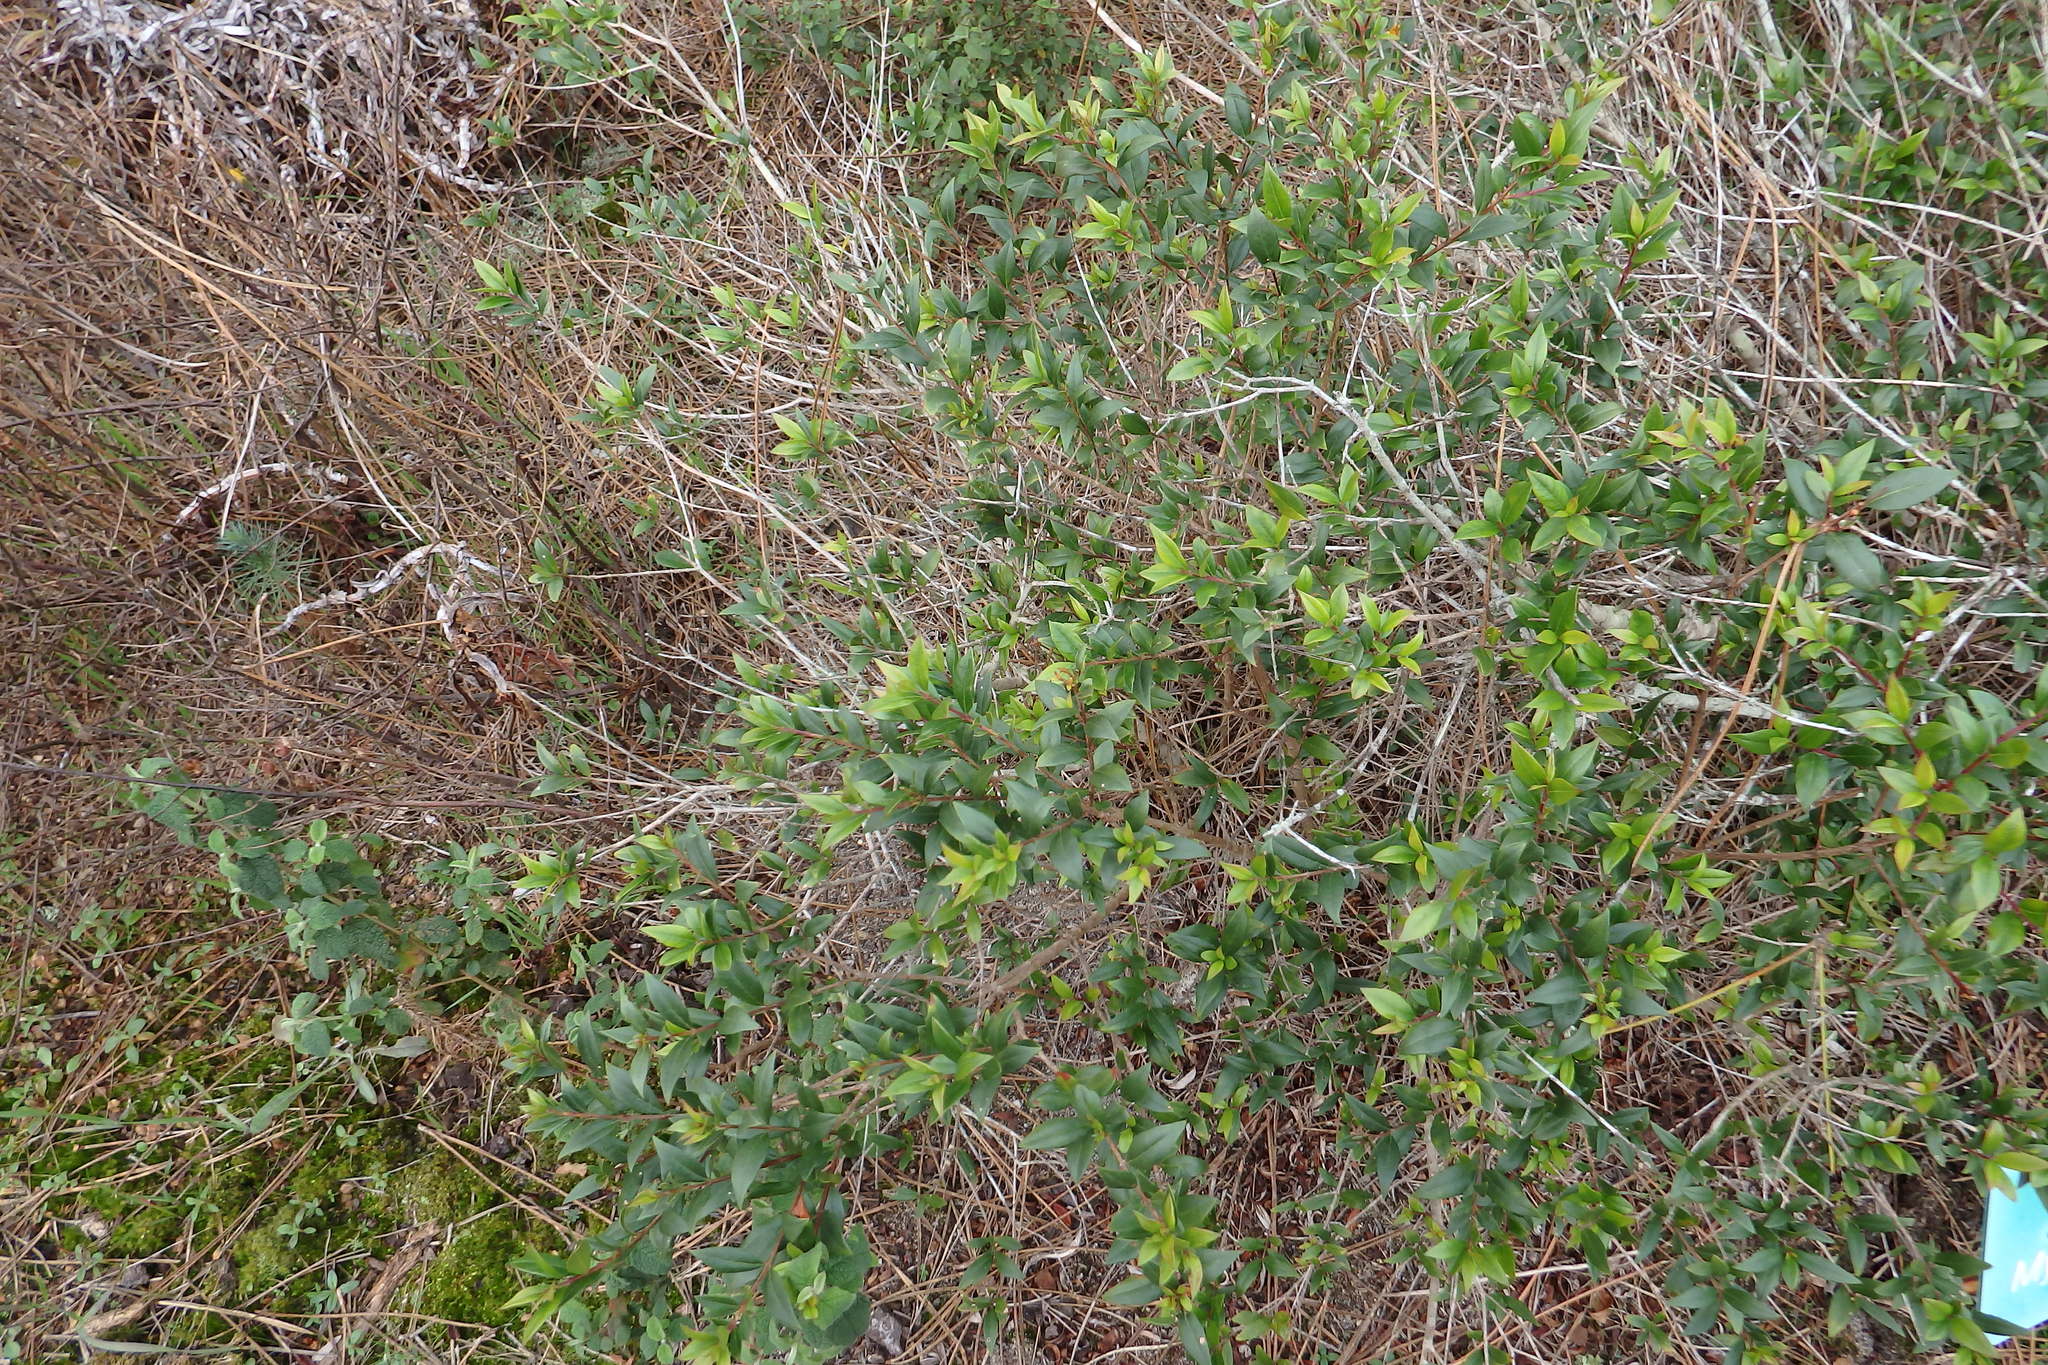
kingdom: Plantae
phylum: Tracheophyta
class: Magnoliopsida
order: Myrtales
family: Myrtaceae
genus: Myrtus
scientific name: Myrtus communis
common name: Myrtle
